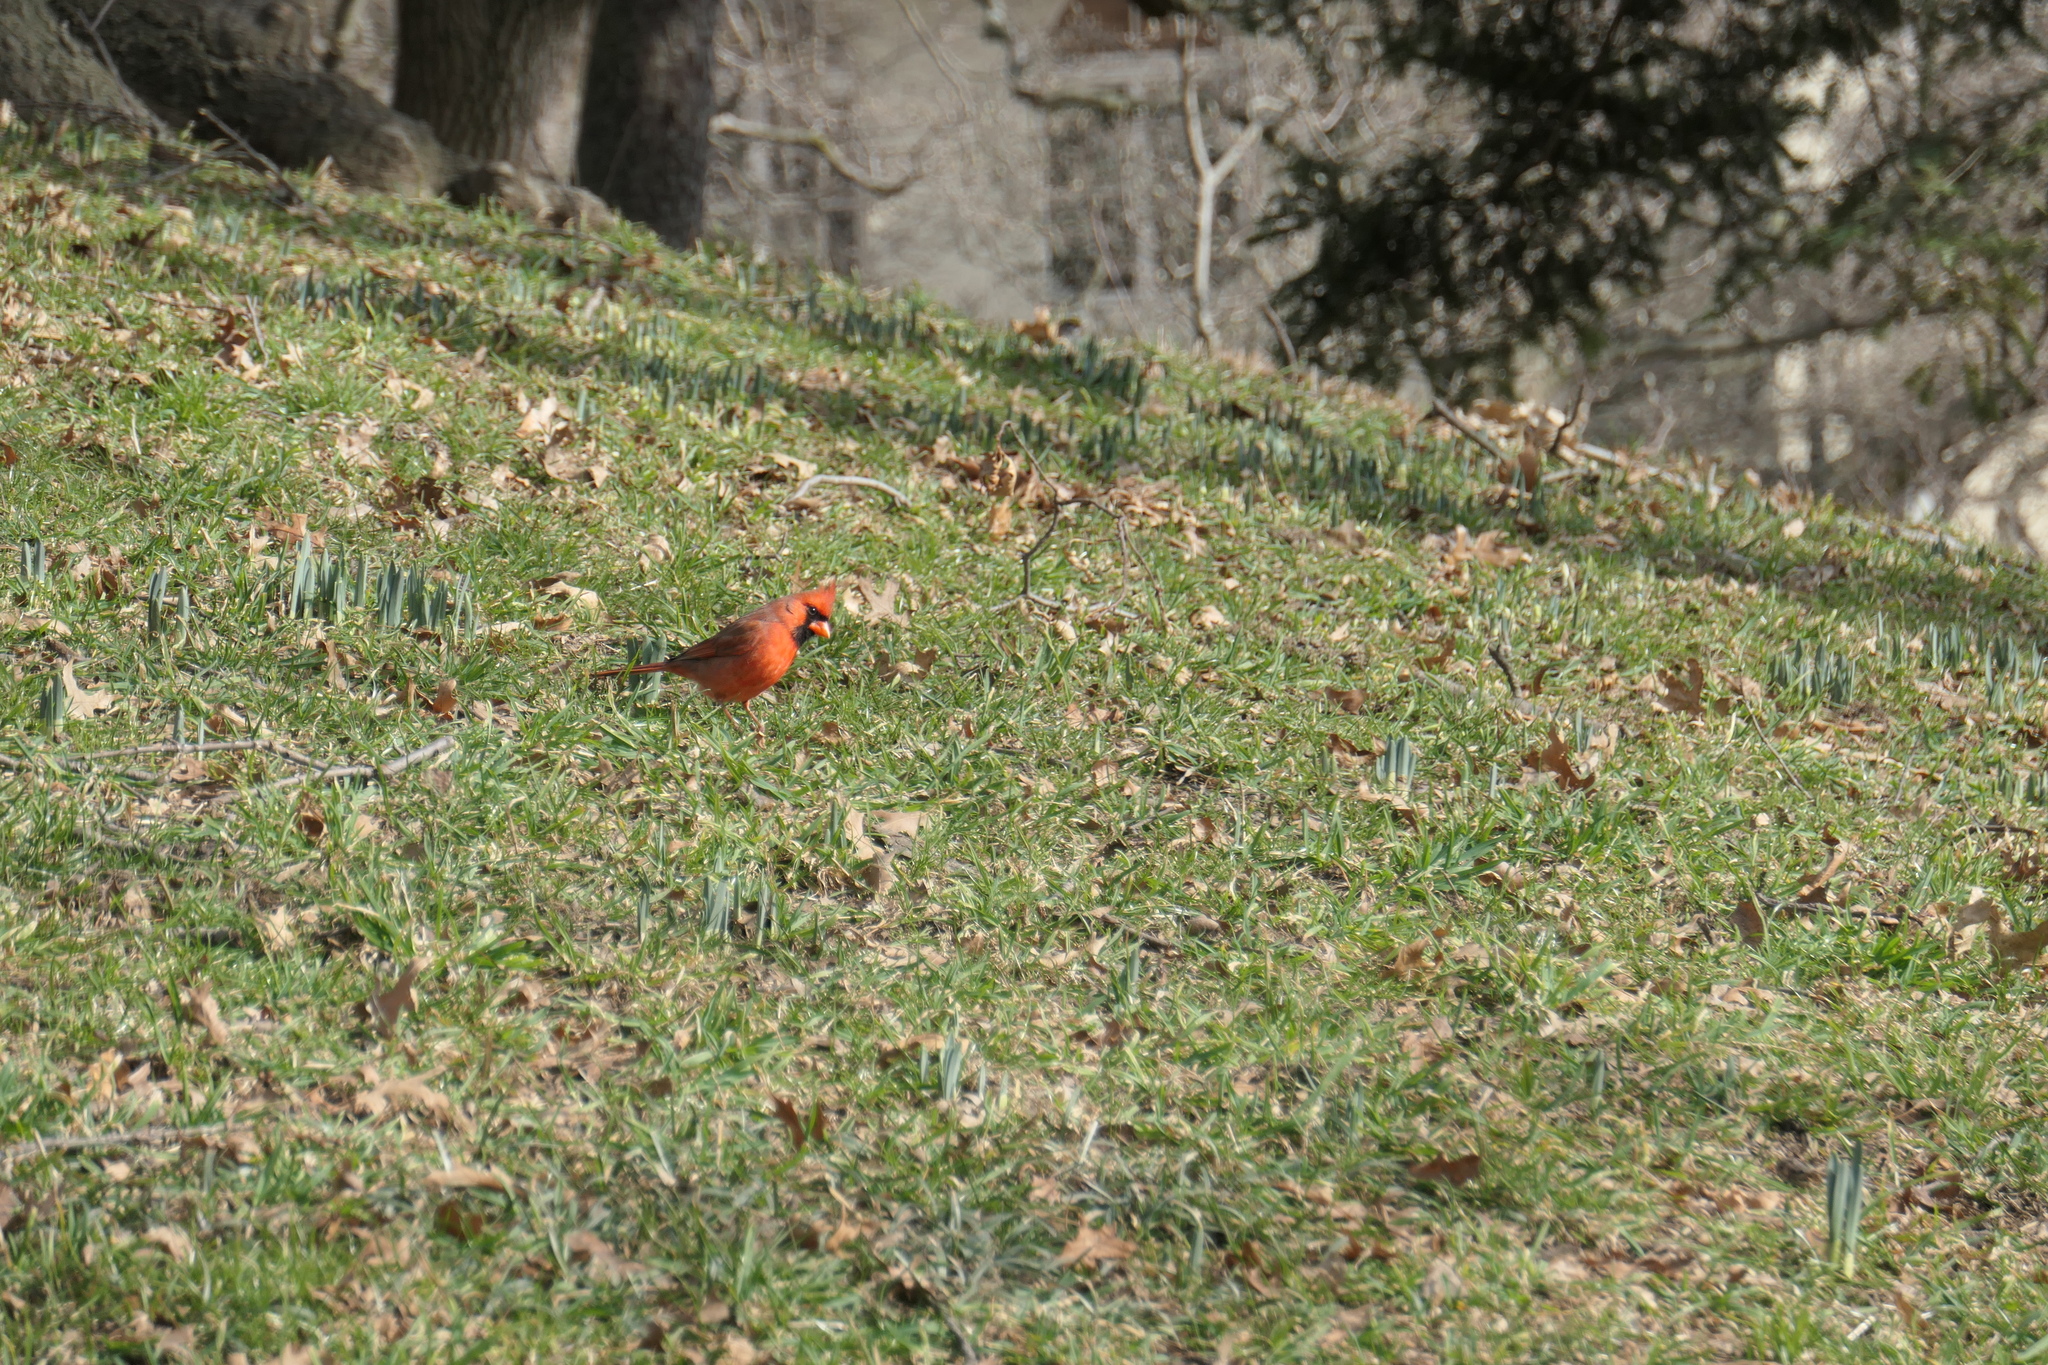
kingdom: Animalia
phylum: Chordata
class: Aves
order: Passeriformes
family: Cardinalidae
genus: Cardinalis
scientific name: Cardinalis cardinalis
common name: Northern cardinal
